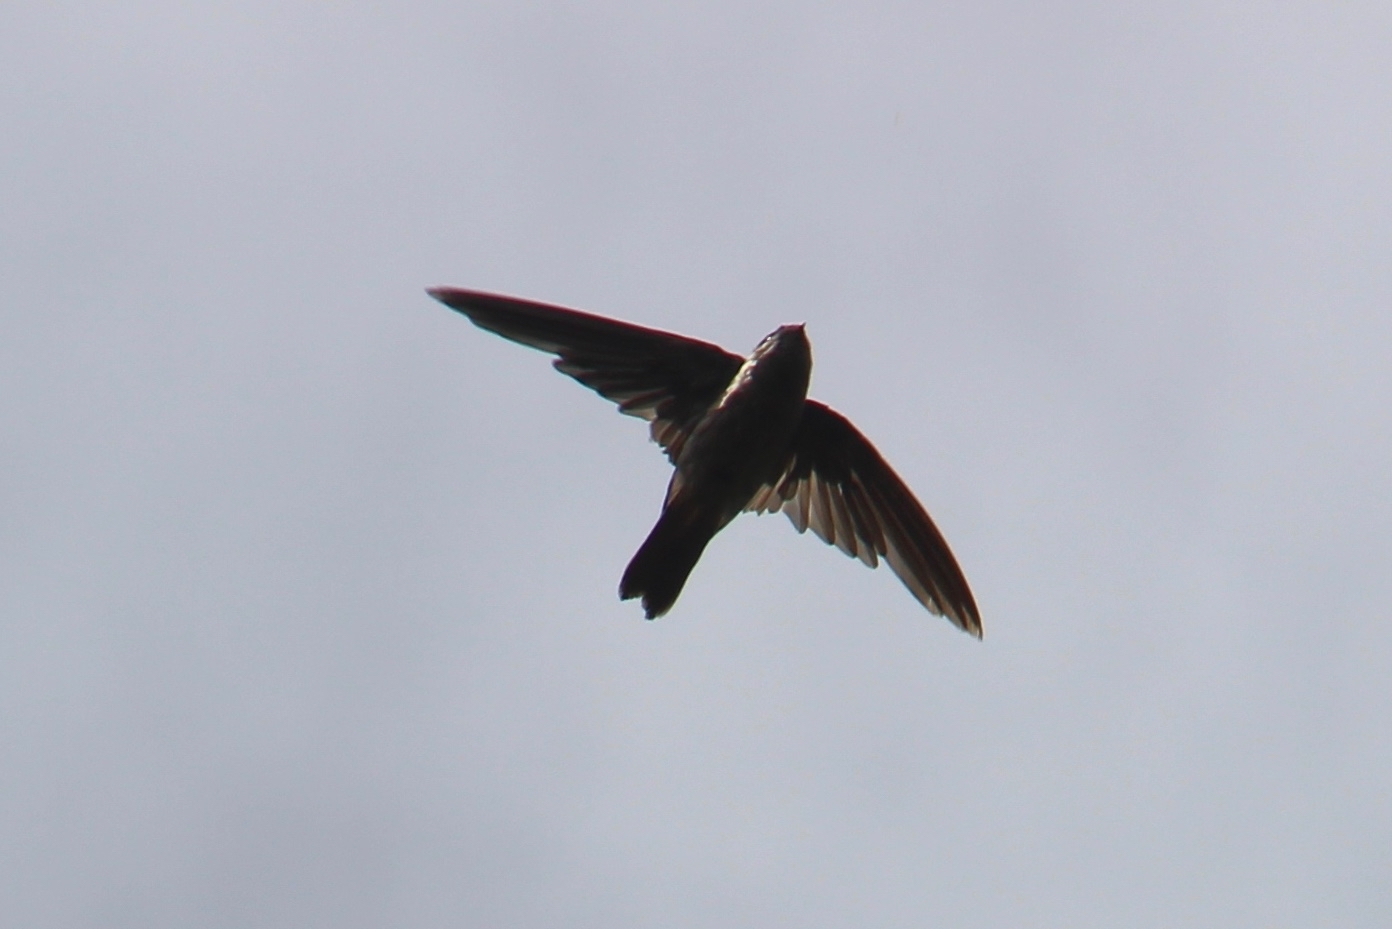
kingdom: Animalia
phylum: Chordata
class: Aves
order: Apodiformes
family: Apodidae
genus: Aerodramus
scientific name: Aerodramus sawtelli
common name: Atiu swiftlet
